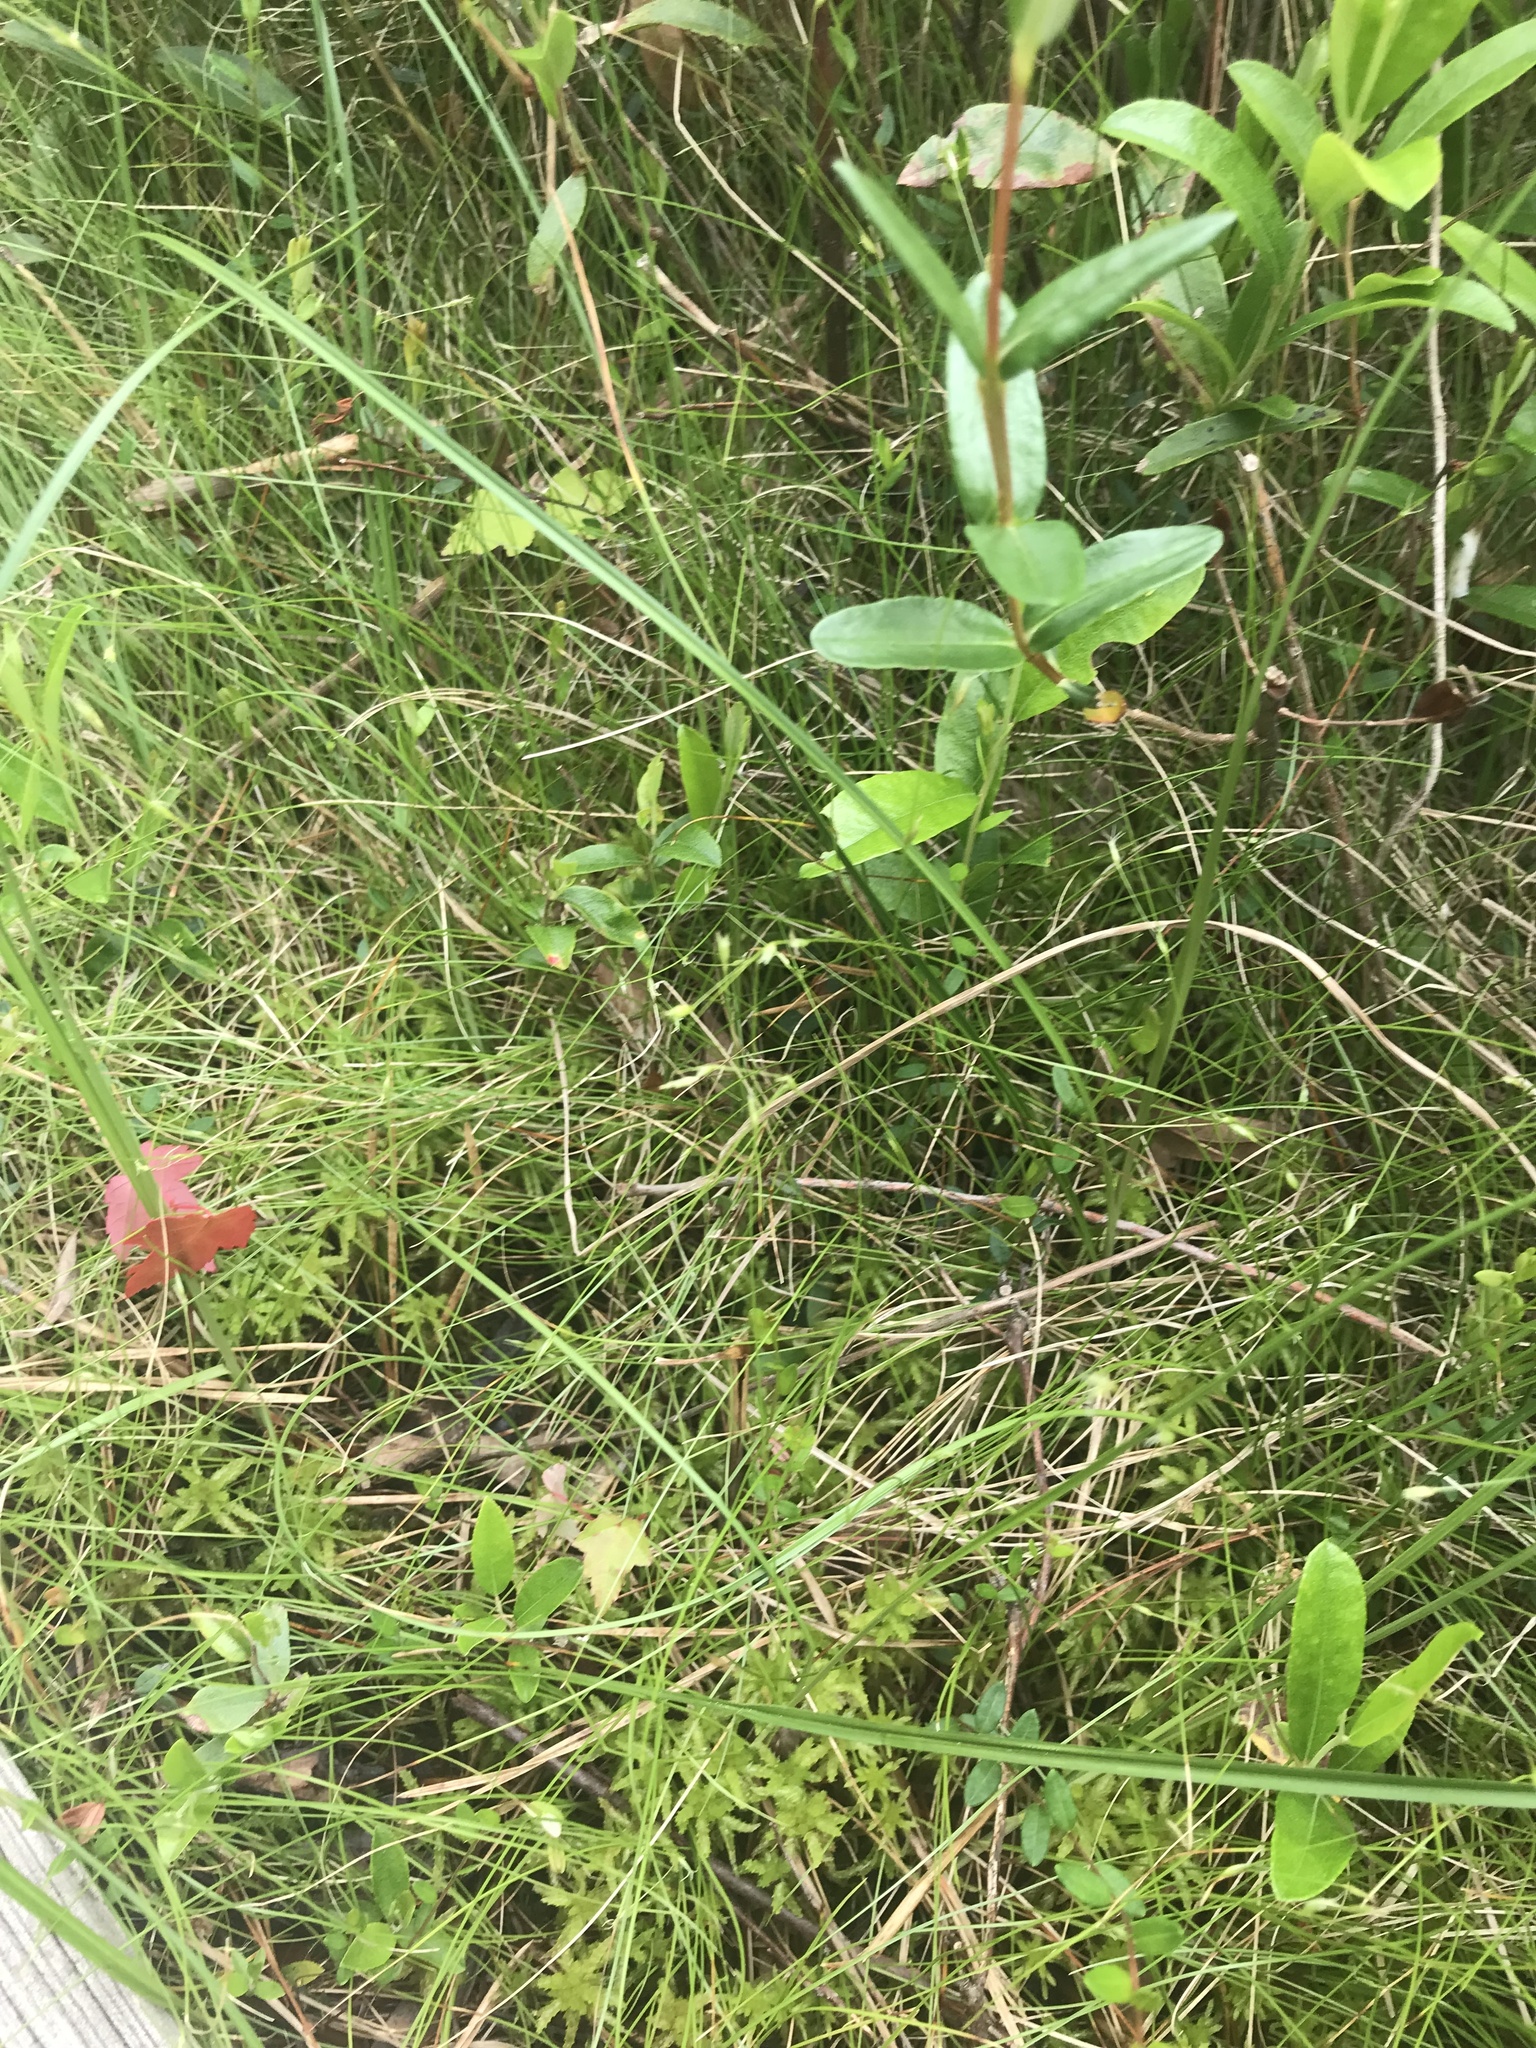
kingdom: Plantae
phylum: Tracheophyta
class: Liliopsida
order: Poales
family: Cyperaceae
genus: Carex
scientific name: Carex trisperma
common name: Three-seeded sedge
